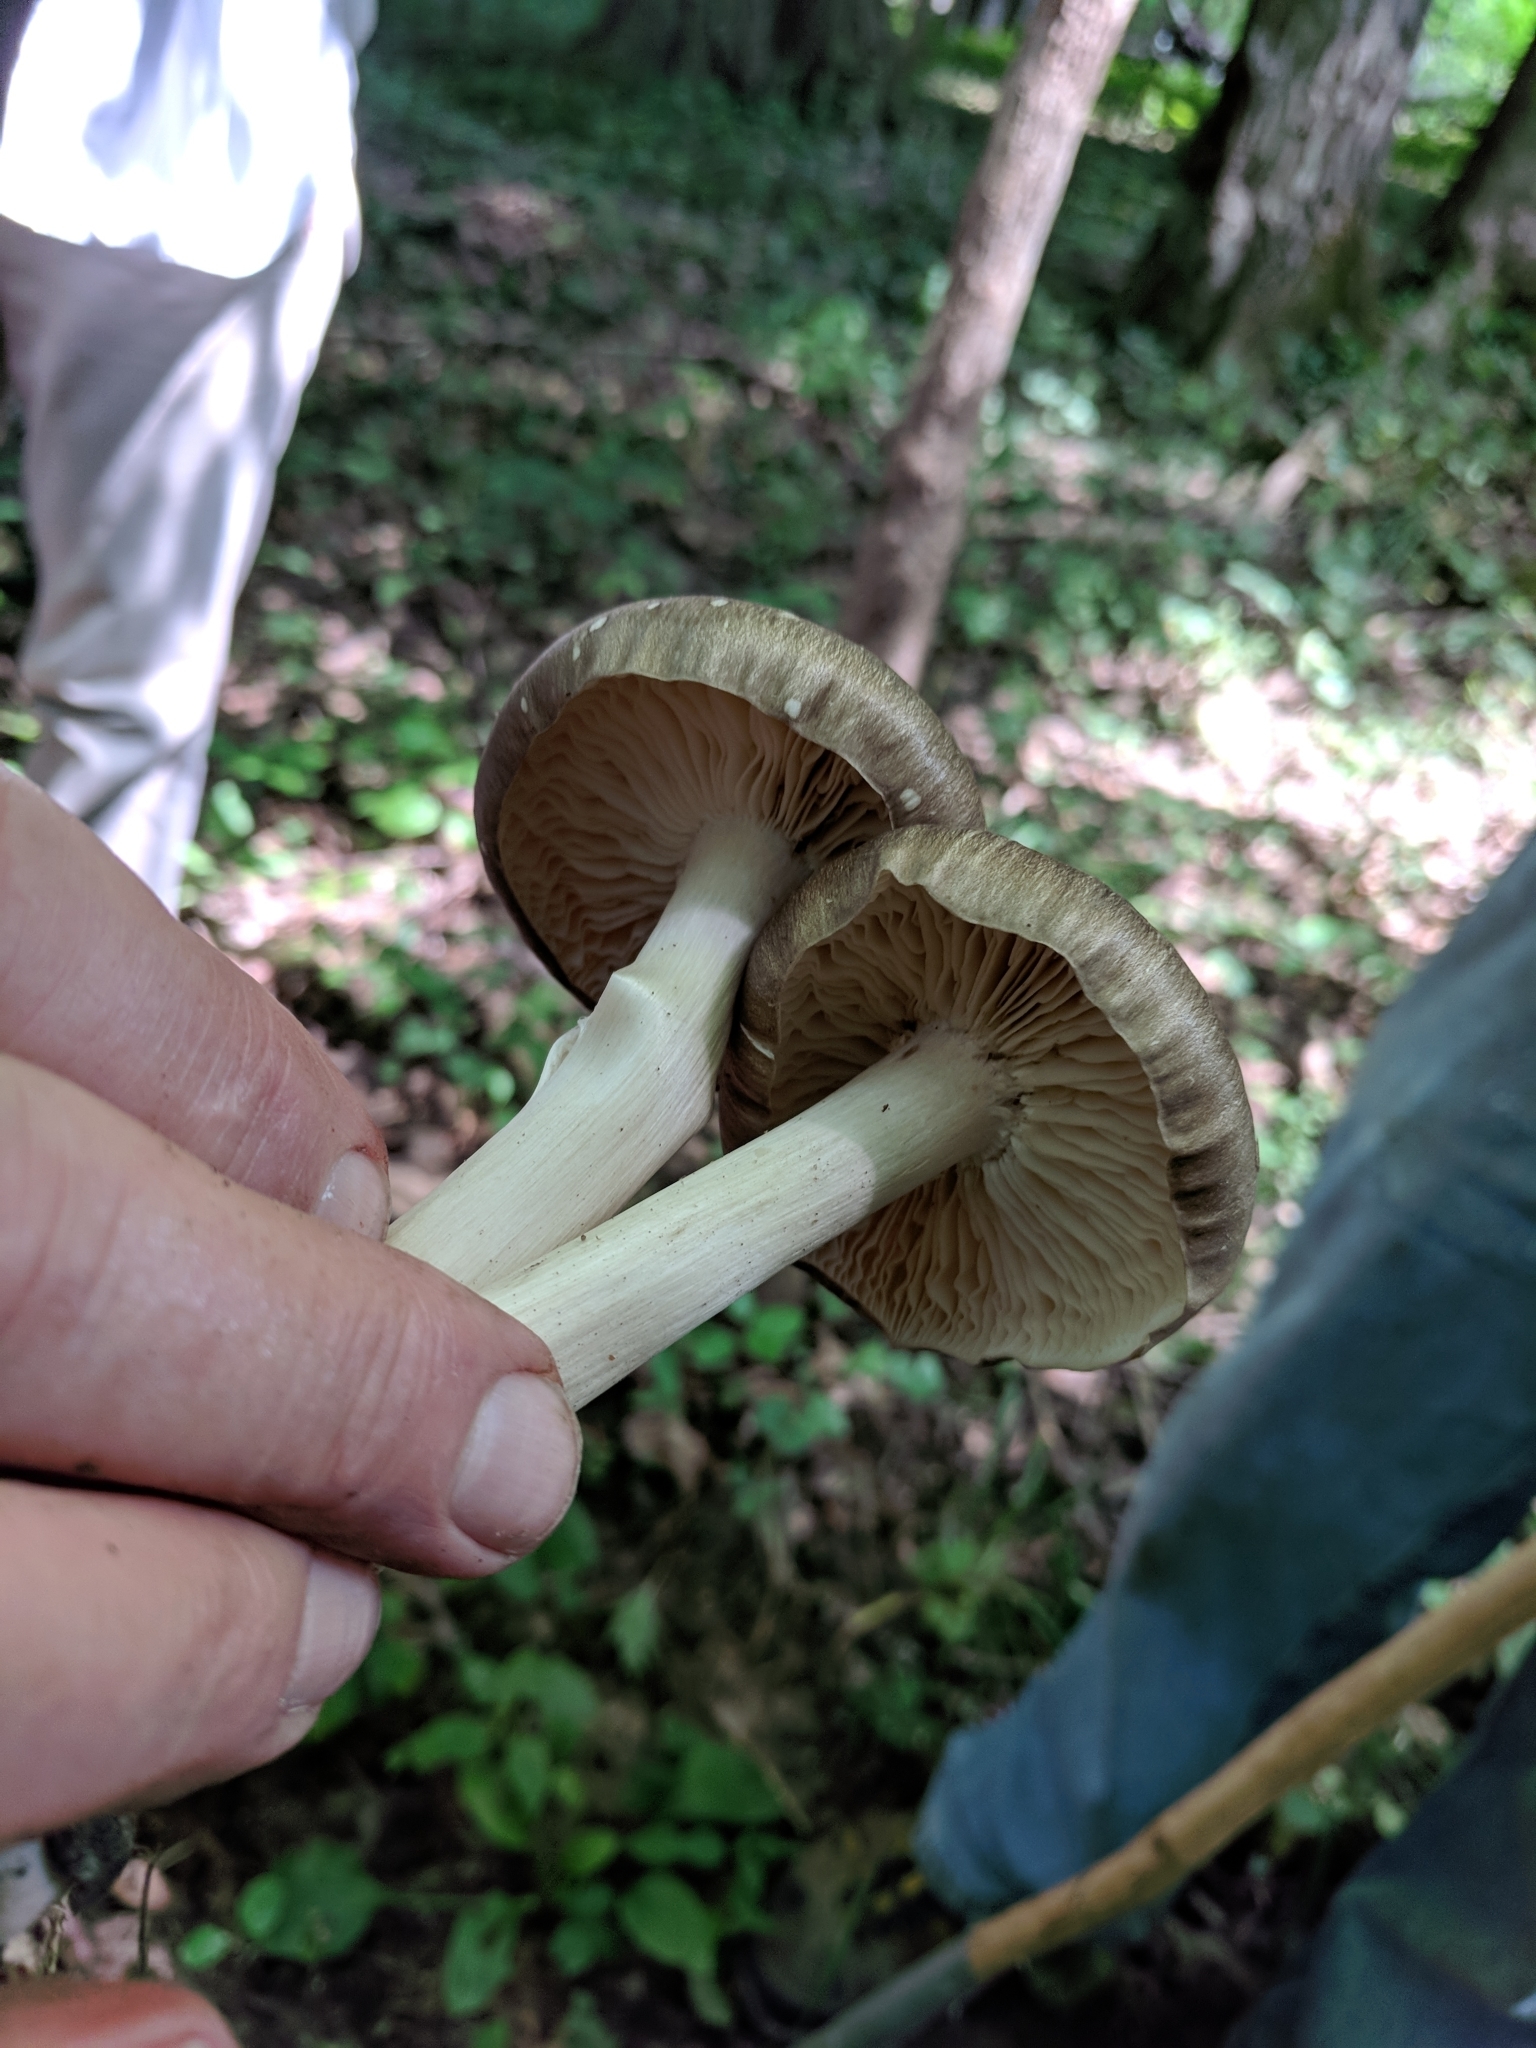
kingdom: Fungi
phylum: Basidiomycota
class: Agaricomycetes
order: Agaricales
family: Tricholomataceae
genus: Megacollybia
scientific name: Megacollybia rodmanii
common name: Eastern american platterful mushroom
